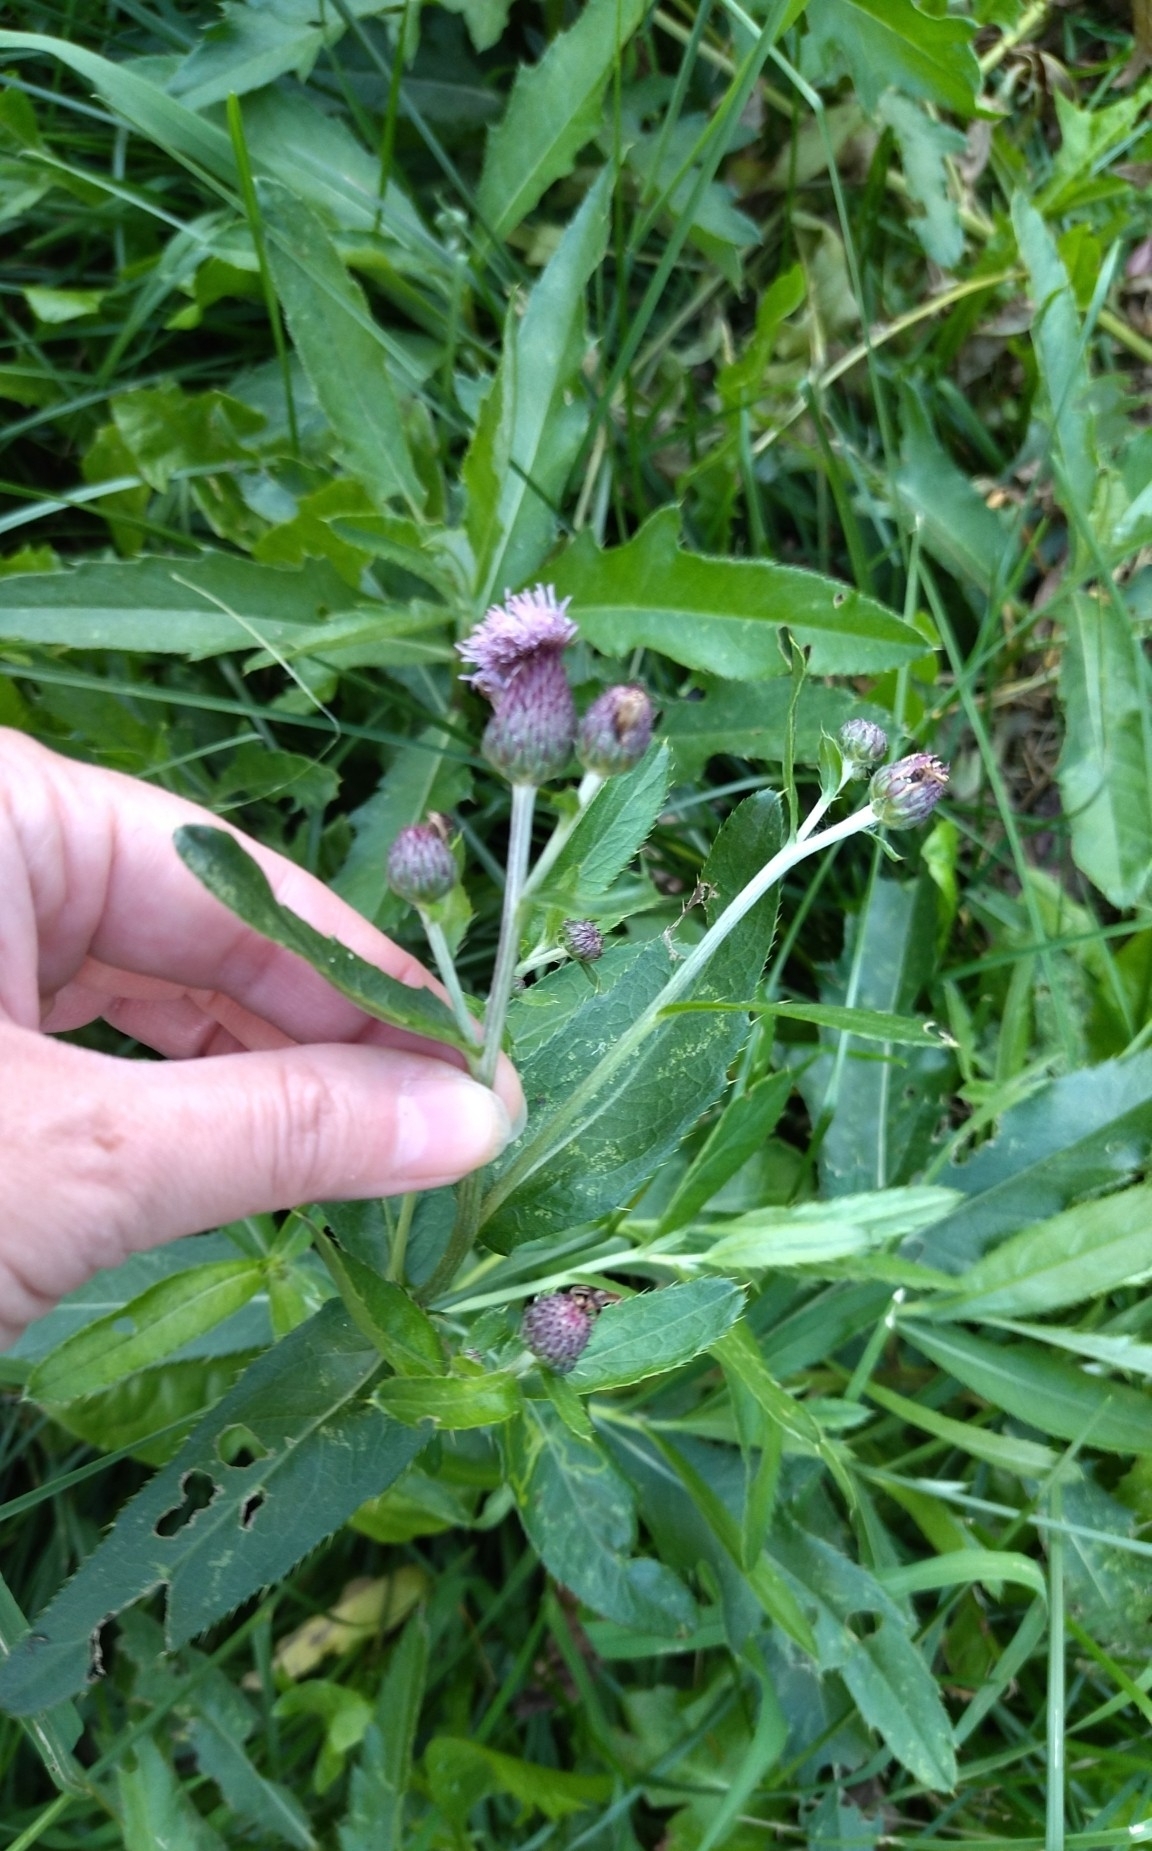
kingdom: Plantae
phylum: Tracheophyta
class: Magnoliopsida
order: Asterales
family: Asteraceae
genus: Cirsium
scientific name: Cirsium arvense
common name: Creeping thistle
